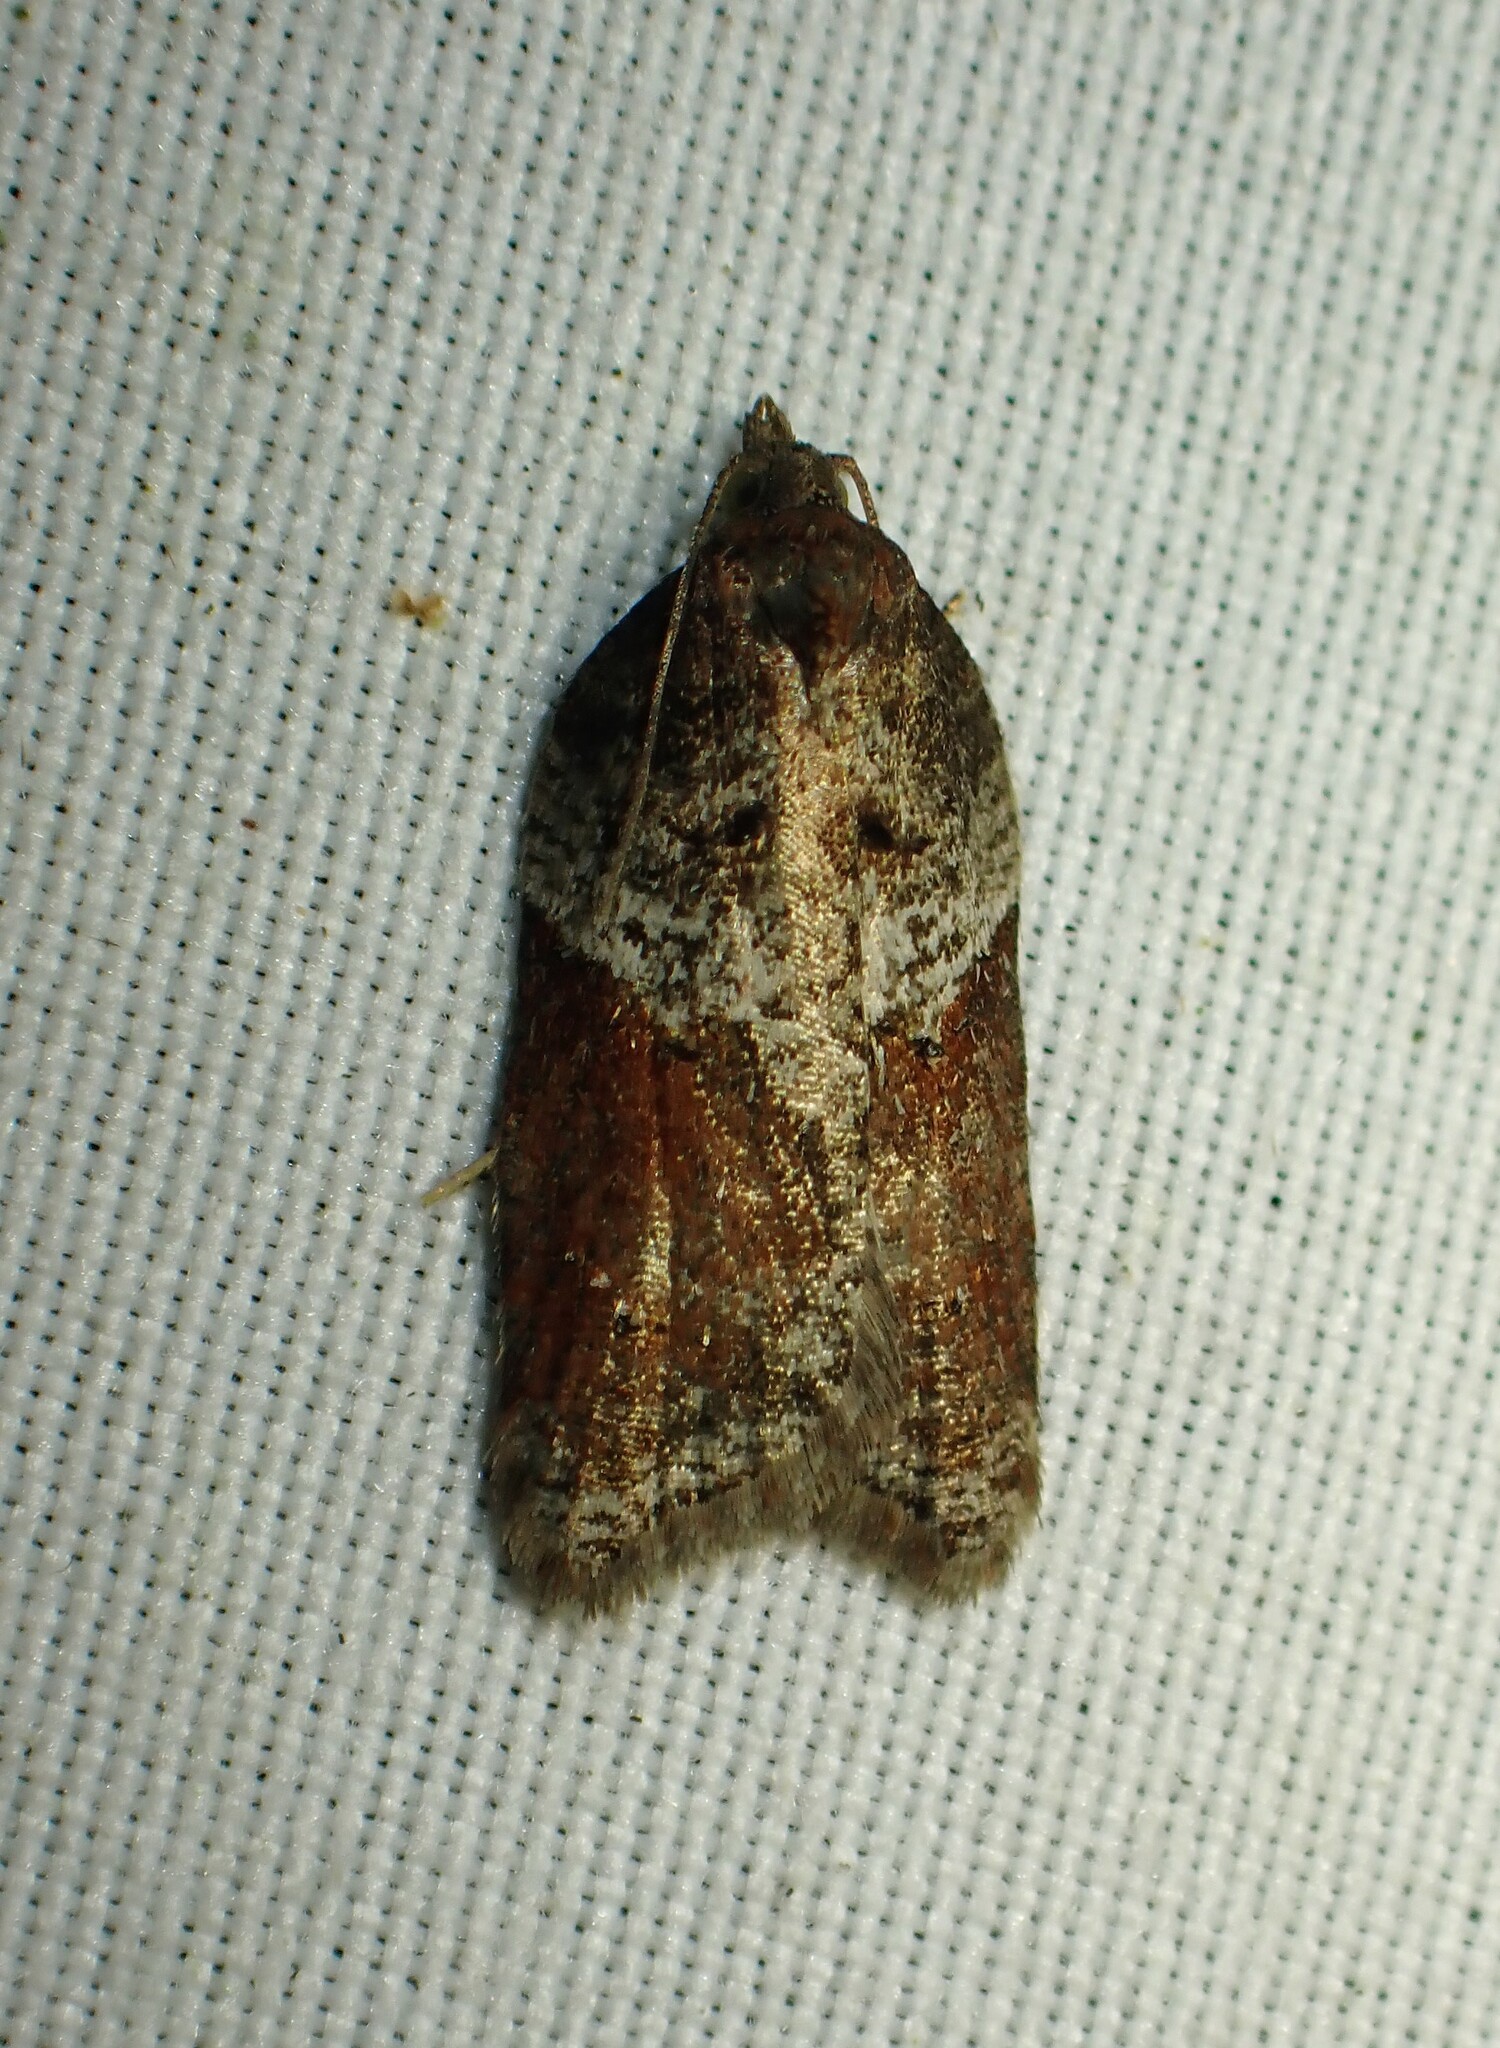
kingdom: Animalia
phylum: Arthropoda
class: Insecta
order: Lepidoptera
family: Tortricidae
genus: Acleris
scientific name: Acleris macdunnoughi
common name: Macdunnough's acleris
